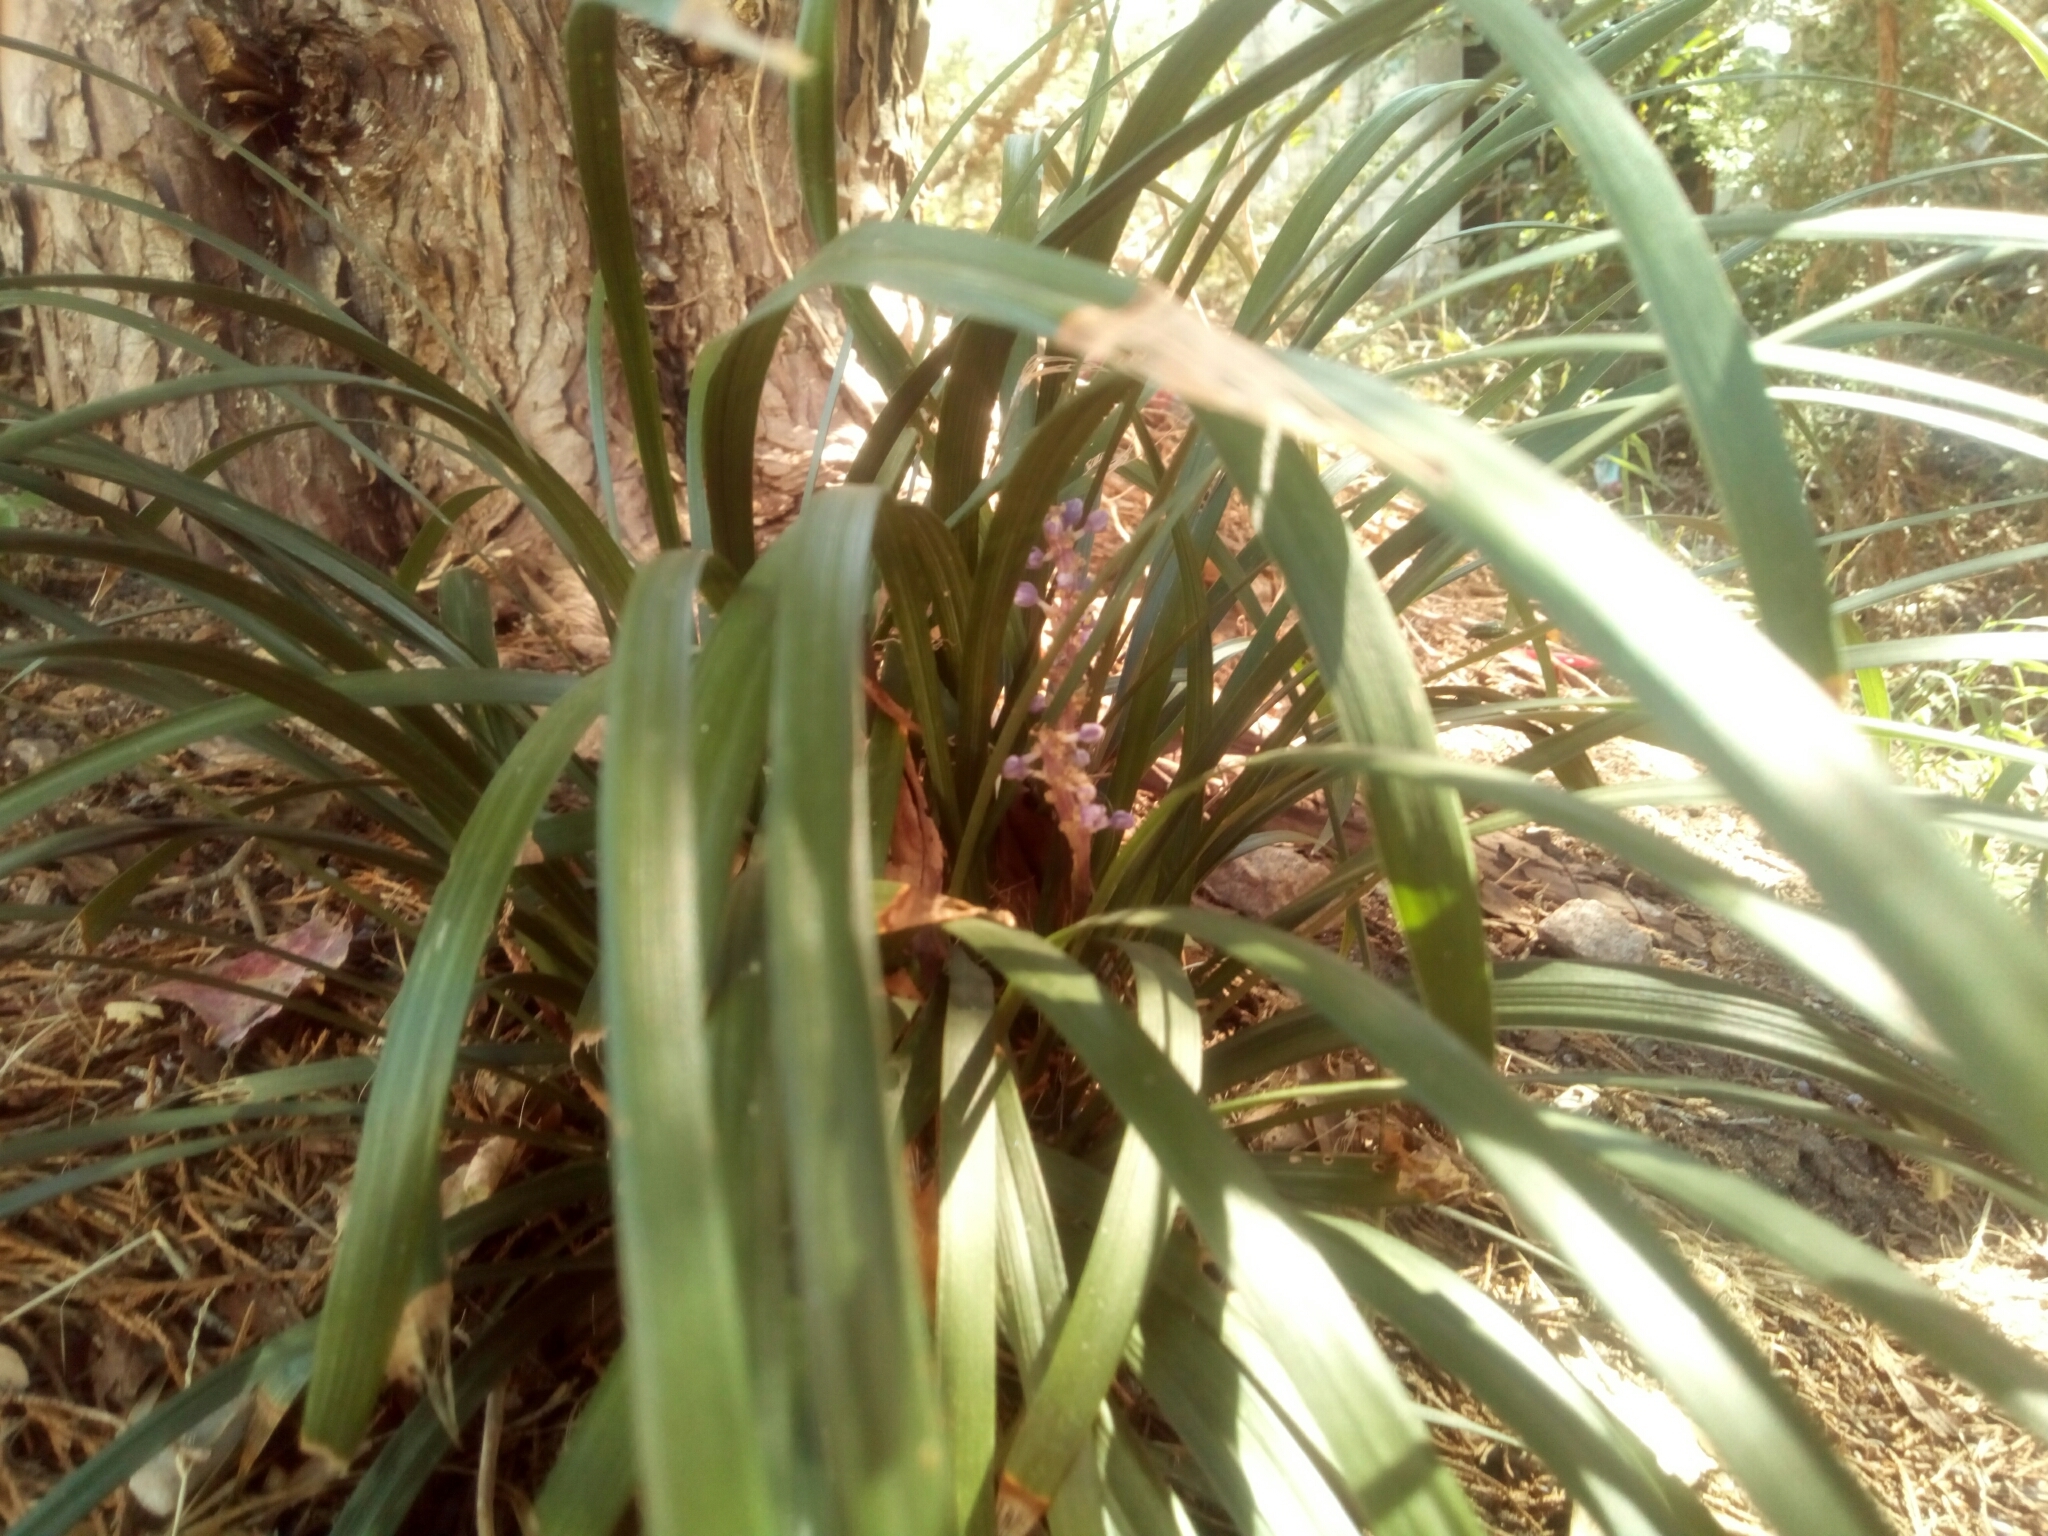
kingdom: Plantae
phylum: Tracheophyta
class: Liliopsida
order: Asparagales
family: Asparagaceae
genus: Liriope
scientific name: Liriope spicata
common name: Creeping liriope
